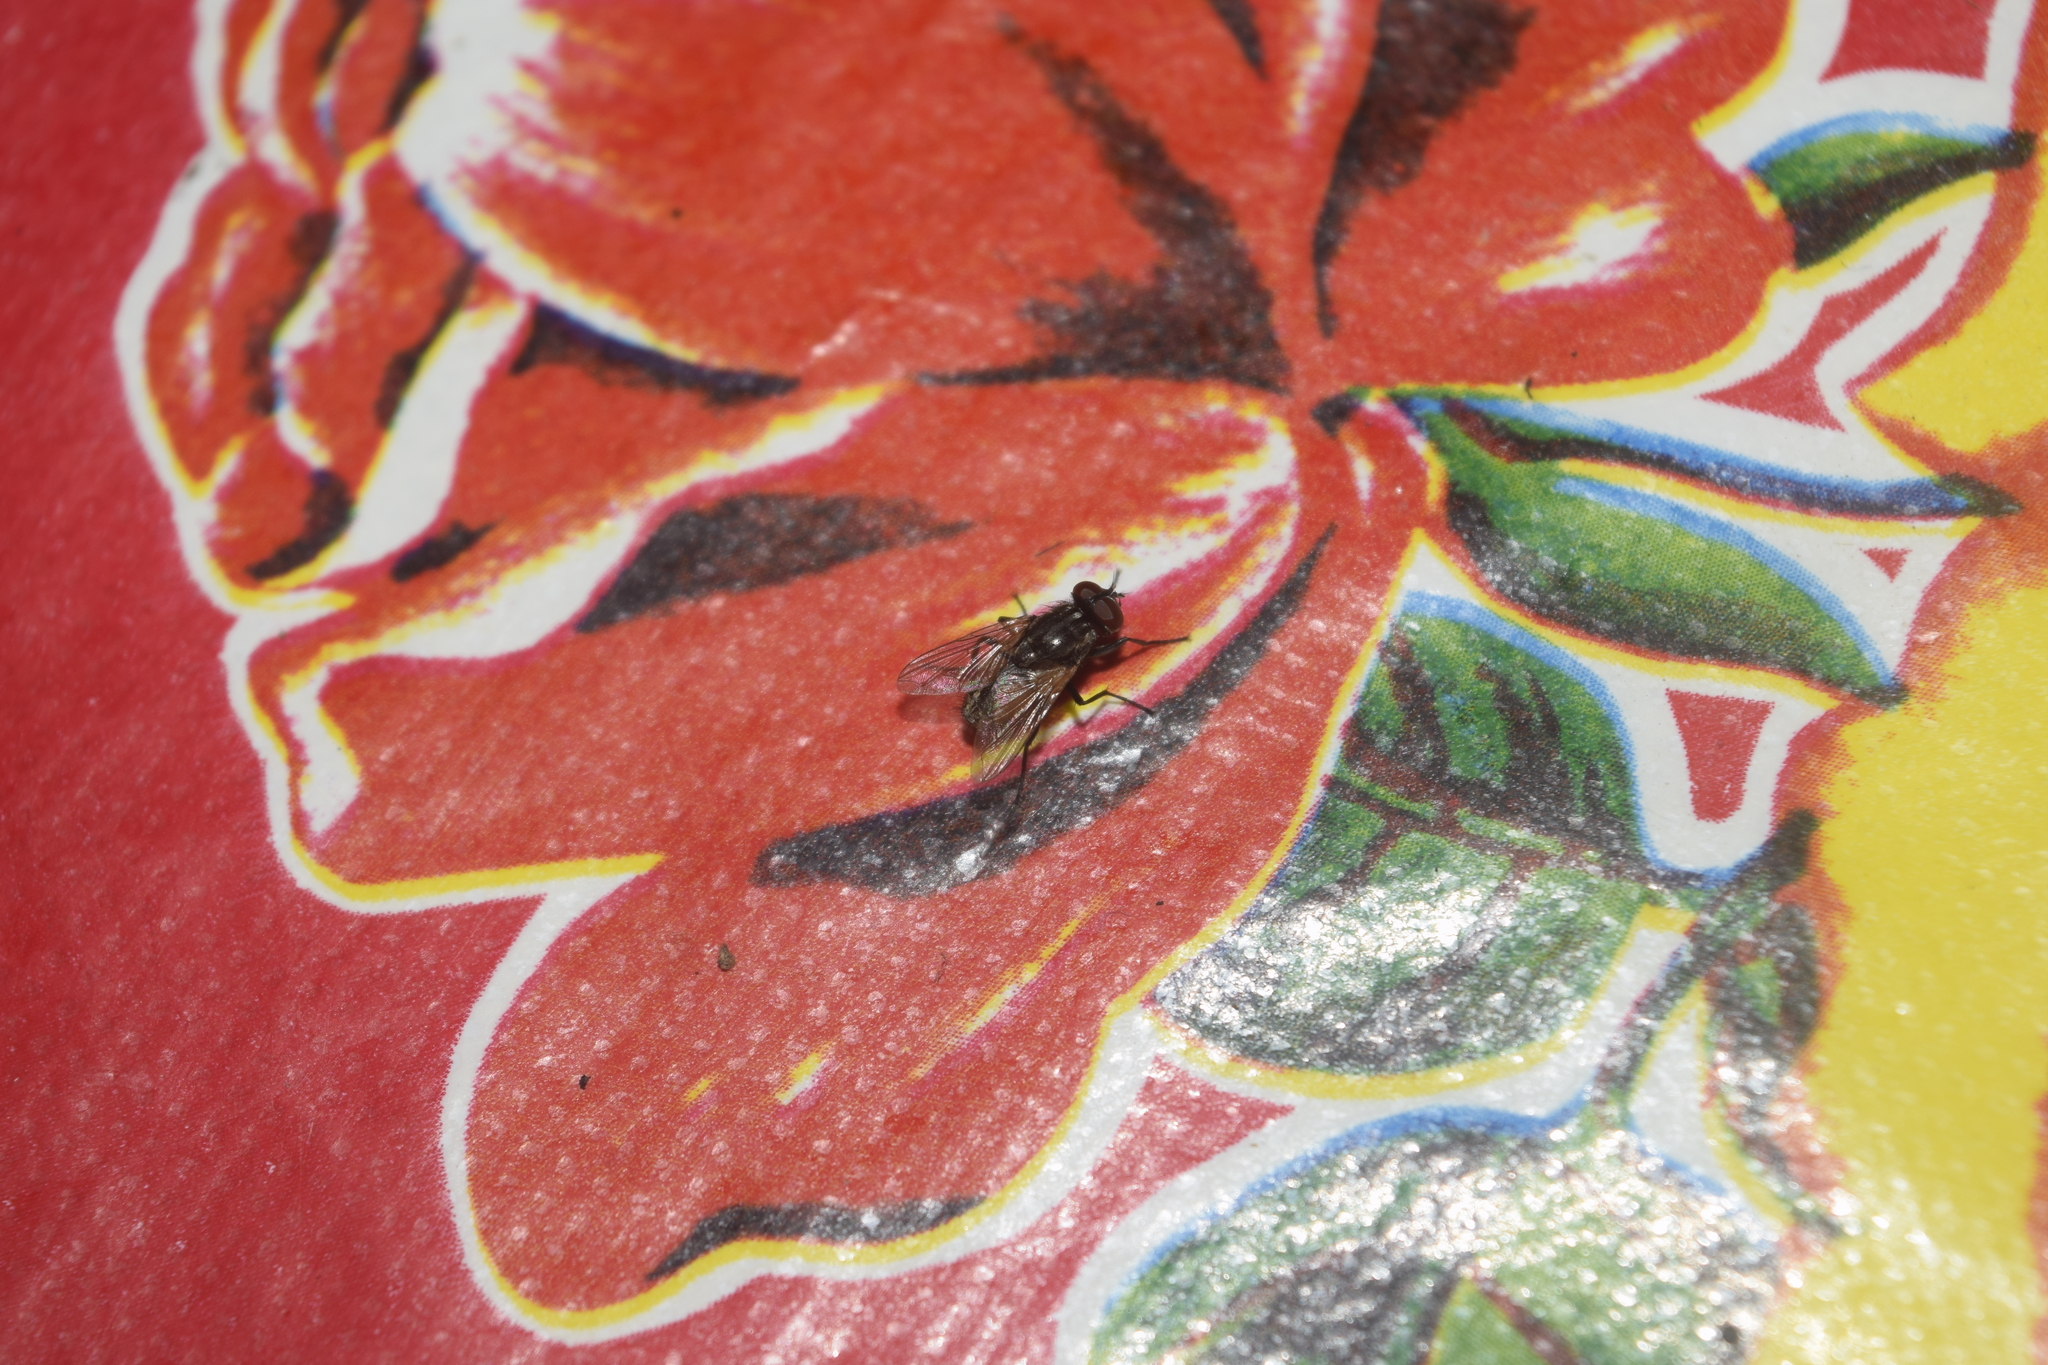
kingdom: Animalia
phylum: Arthropoda
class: Insecta
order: Diptera
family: Muscidae
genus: Musca
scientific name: Musca domestica
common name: House fly
